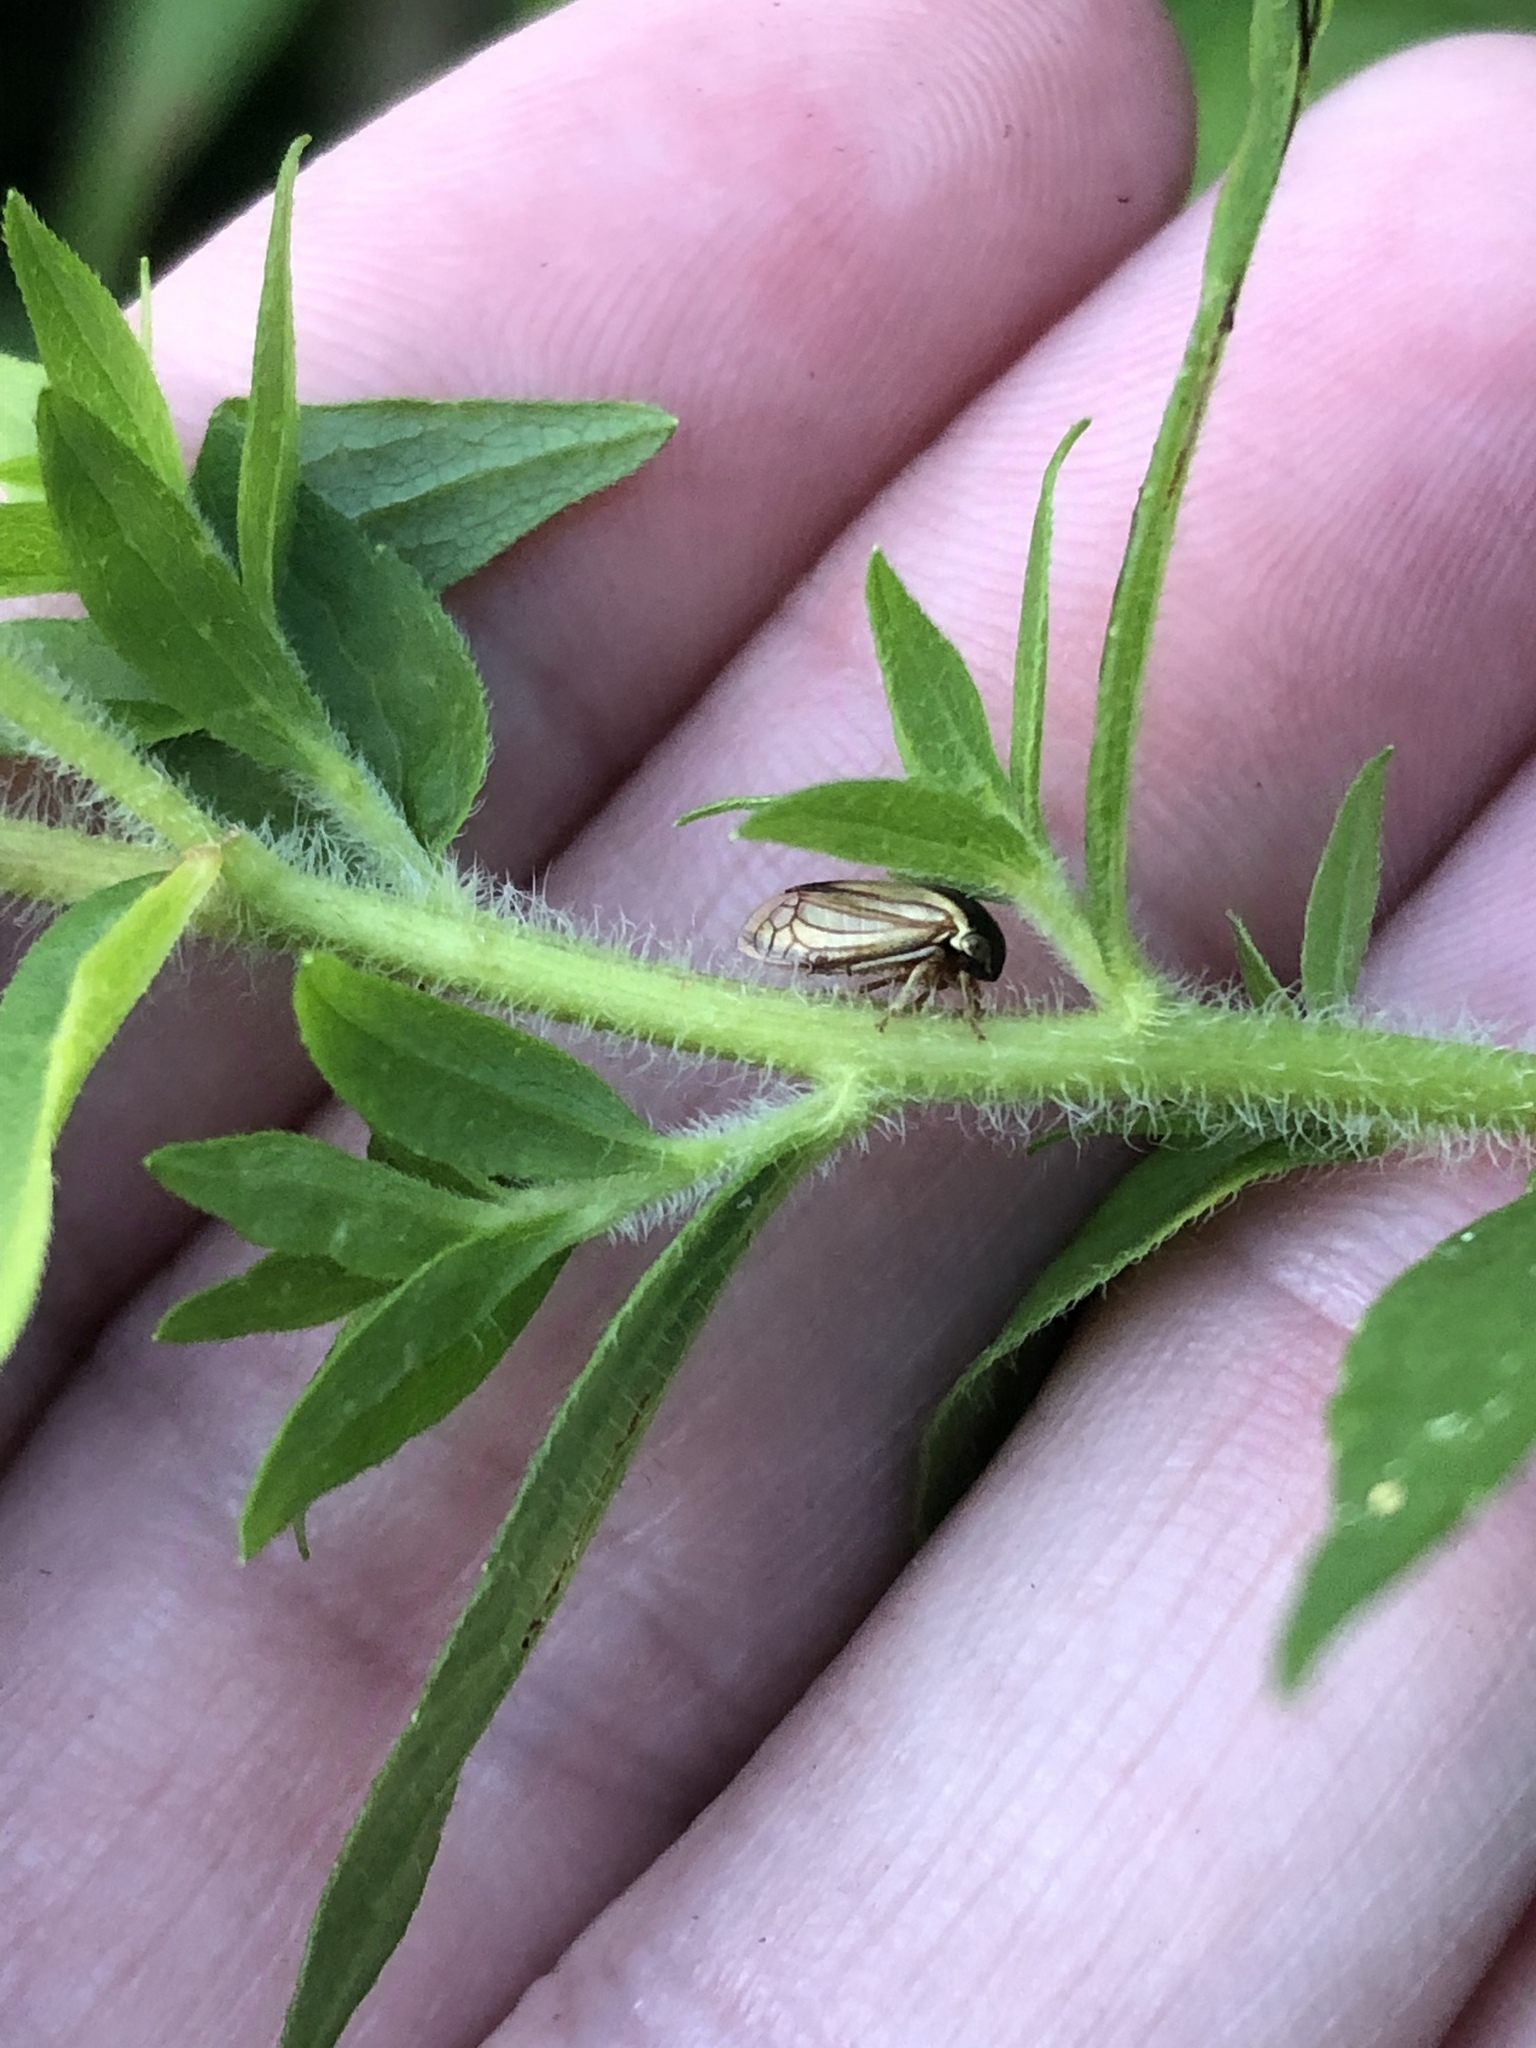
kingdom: Animalia
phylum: Arthropoda
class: Insecta
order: Hemiptera
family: Membracidae
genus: Acutalis
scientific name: Acutalis tartarea
